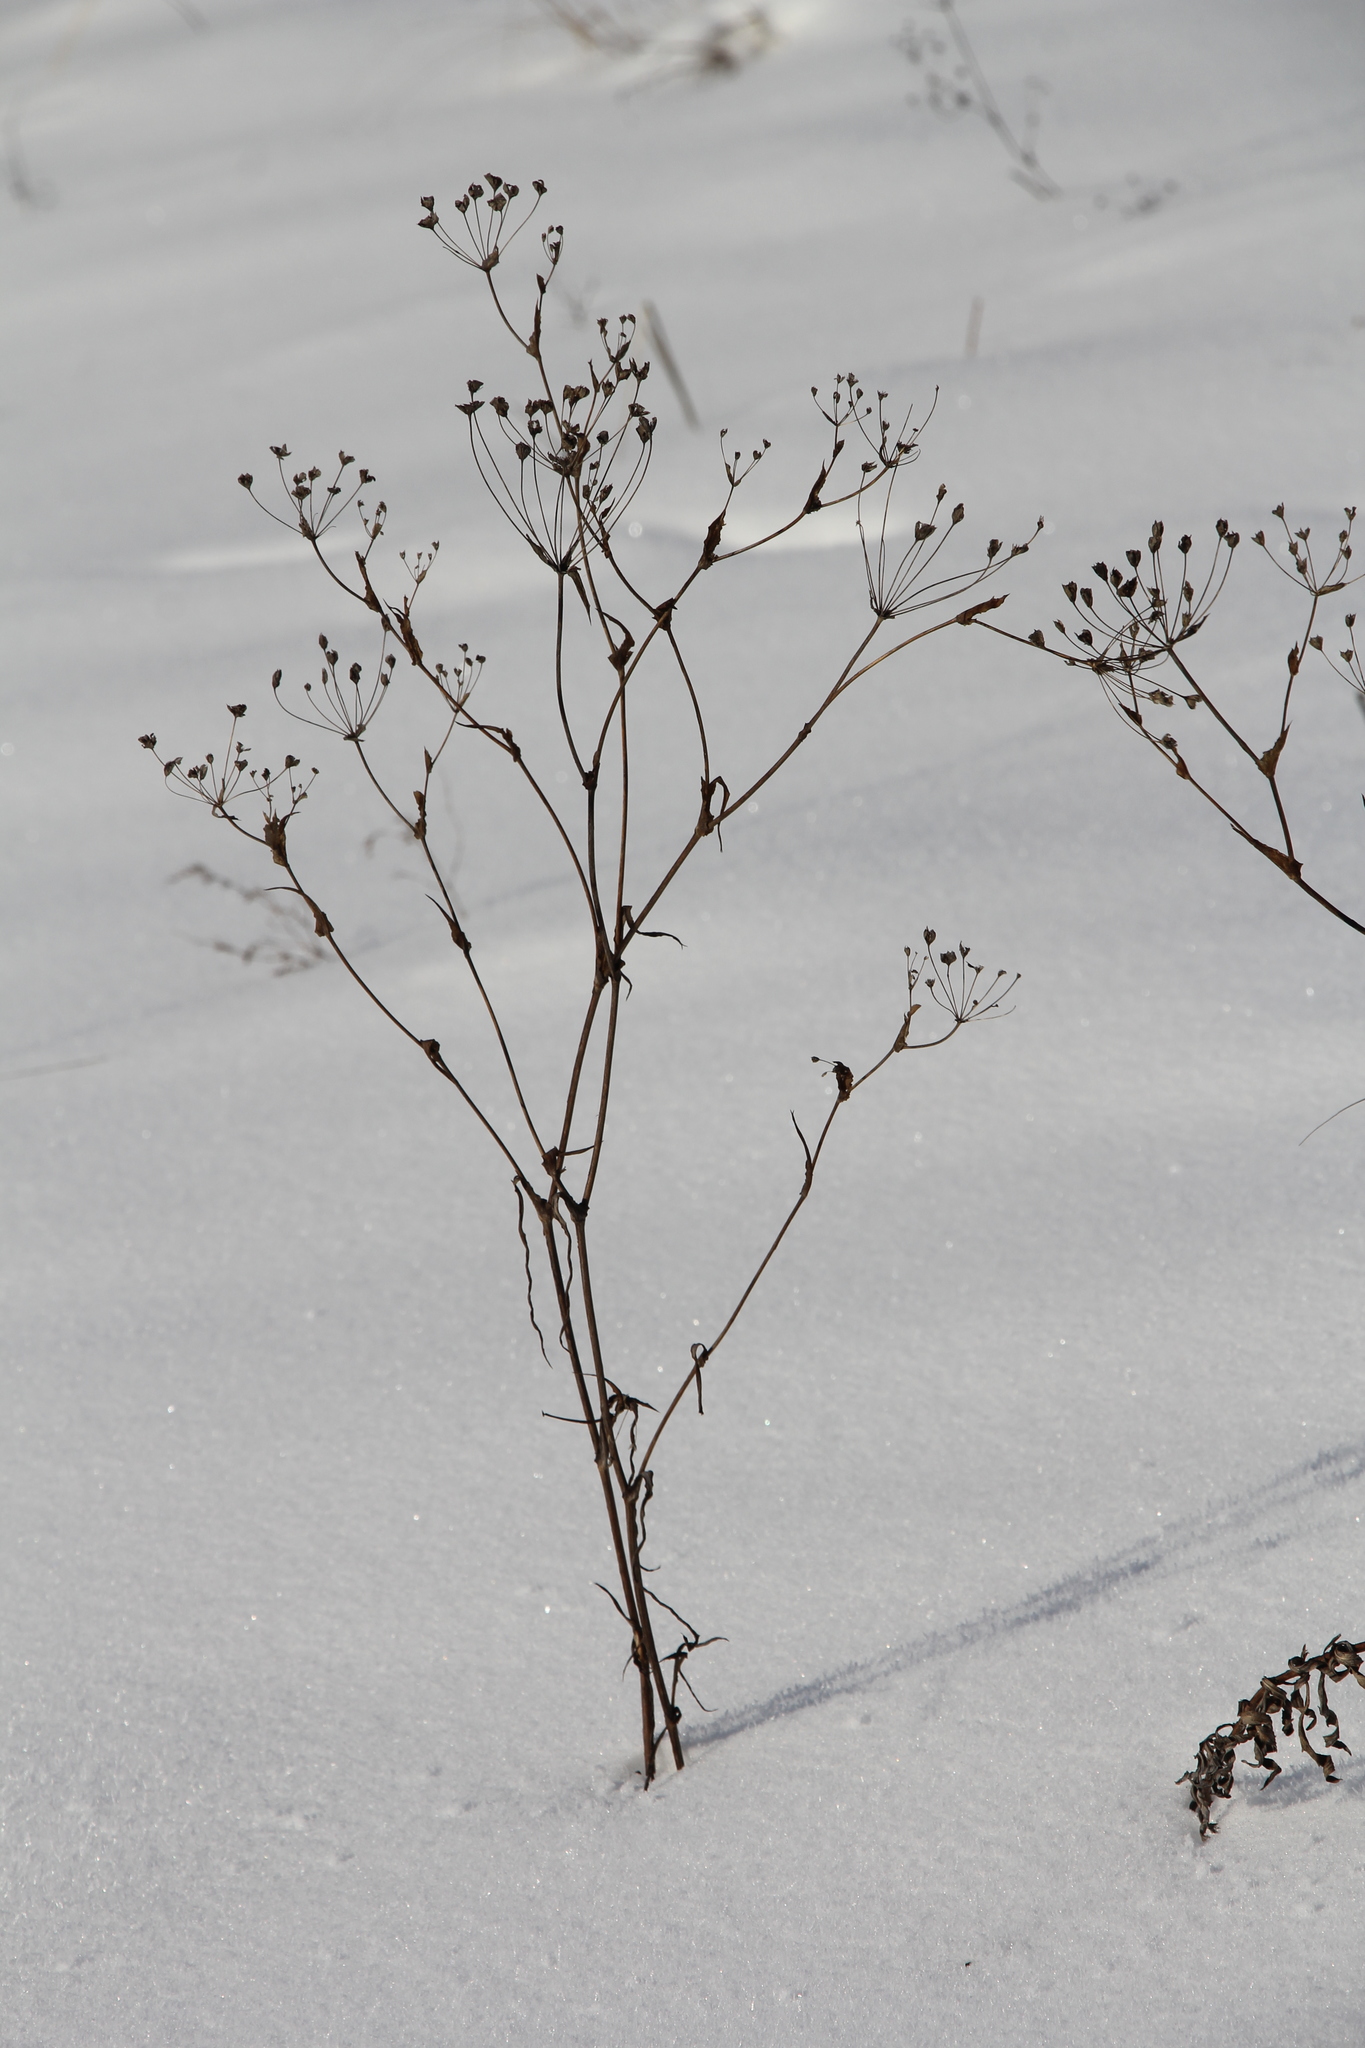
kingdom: Plantae
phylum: Tracheophyta
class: Magnoliopsida
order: Apiales
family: Apiaceae
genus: Bupleurum
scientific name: Bupleurum multinerve
